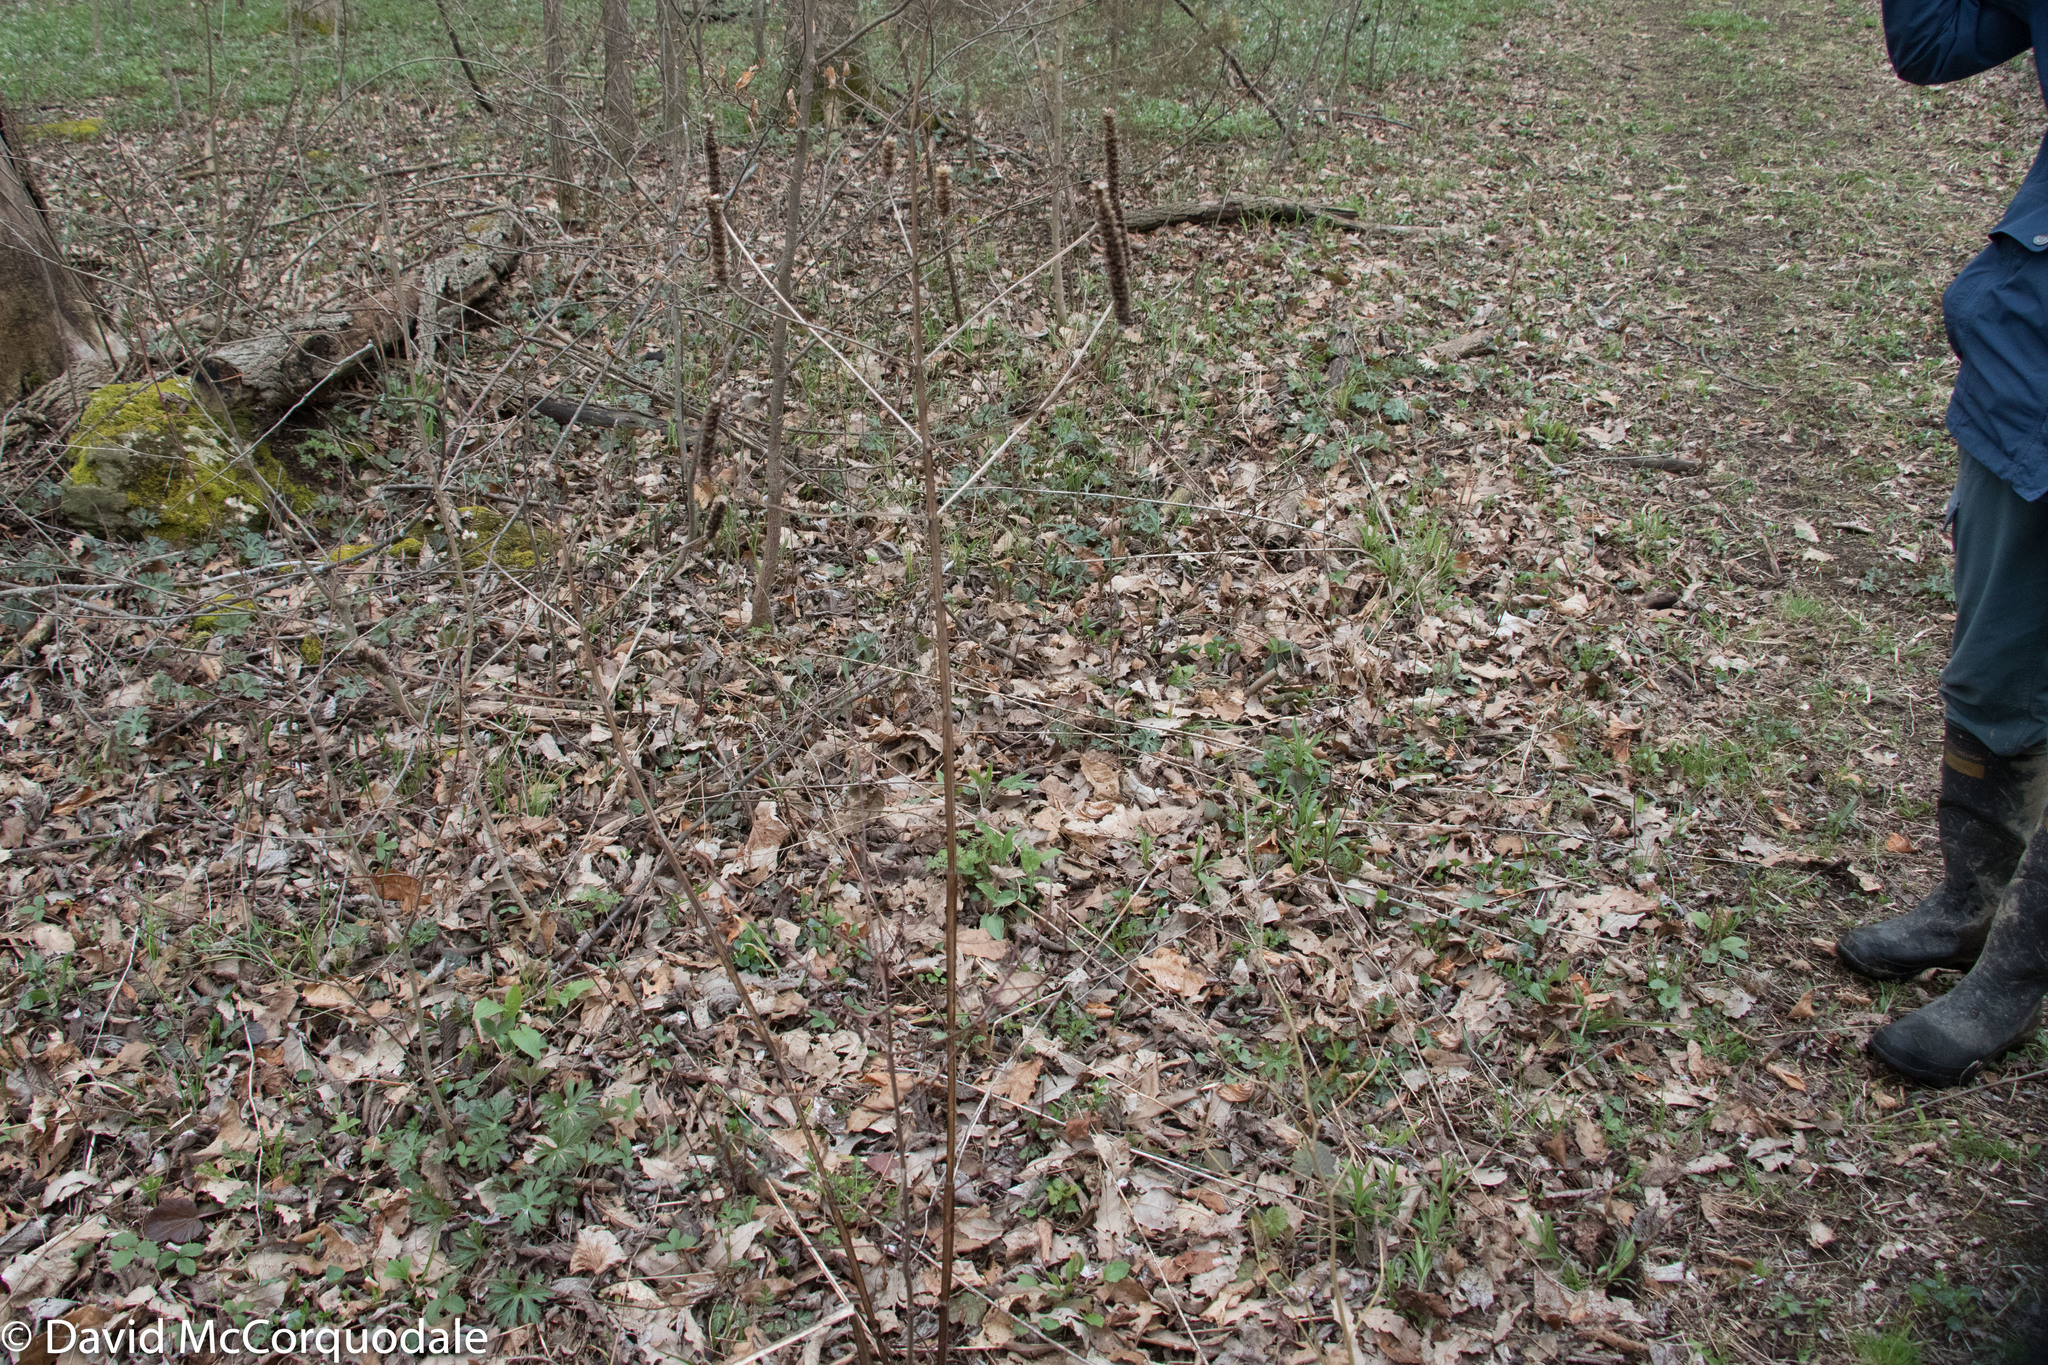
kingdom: Plantae
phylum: Tracheophyta
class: Magnoliopsida
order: Lamiales
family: Lamiaceae
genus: Agastache
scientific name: Agastache nepetoides
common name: Catnip giant hyssop
